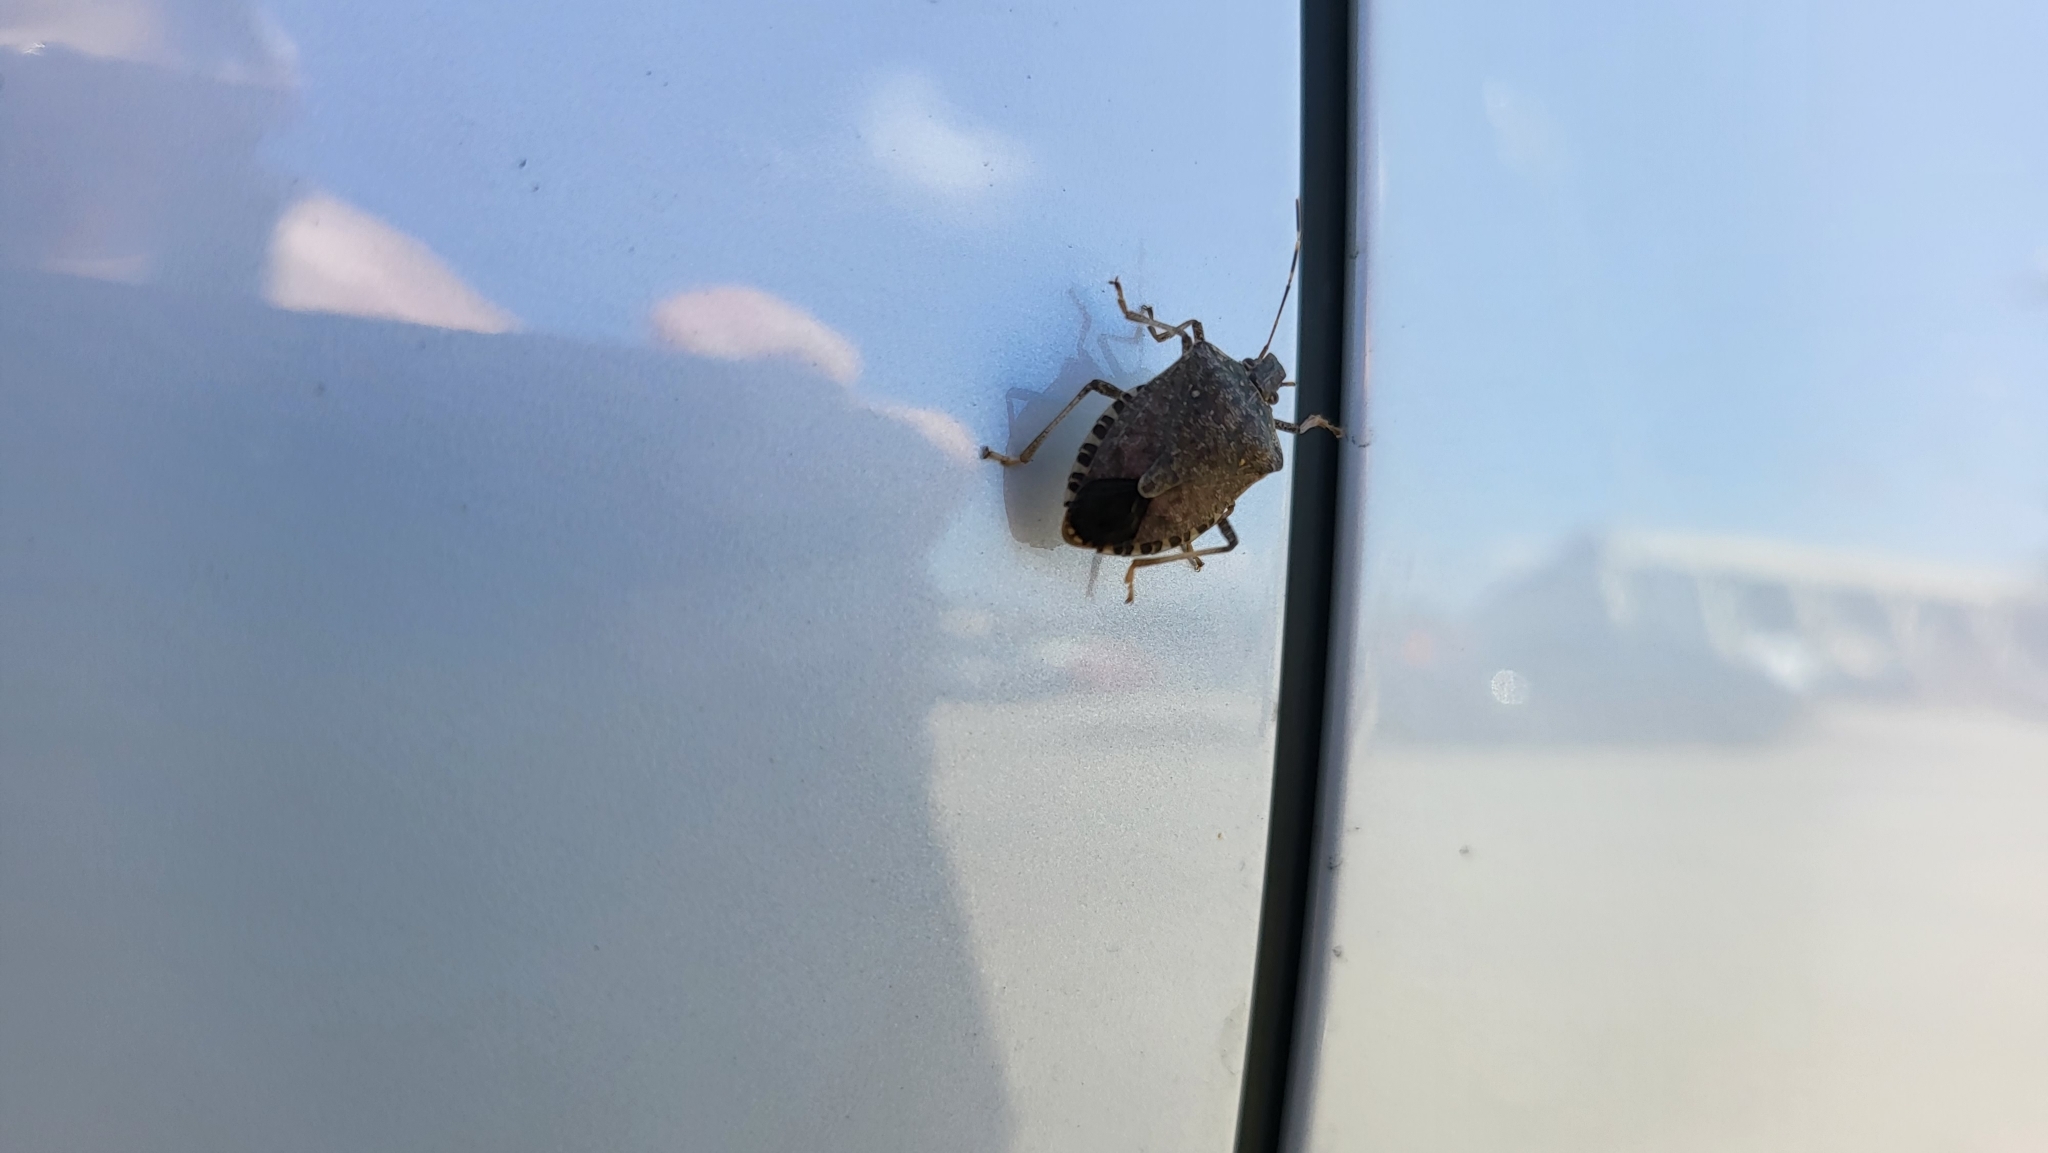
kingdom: Animalia
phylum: Arthropoda
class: Insecta
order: Hemiptera
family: Pentatomidae
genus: Halyomorpha
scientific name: Halyomorpha halys
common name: Brown marmorated stink bug
